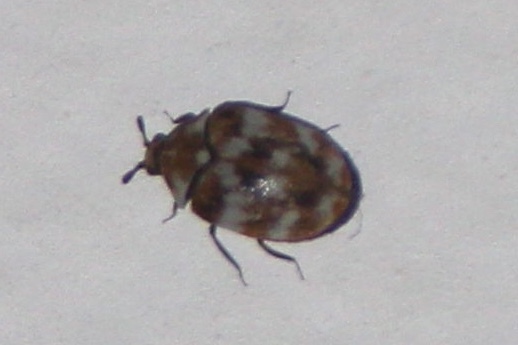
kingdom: Animalia
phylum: Arthropoda
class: Insecta
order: Coleoptera
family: Dermestidae
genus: Anthrenus
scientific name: Anthrenus verbasci
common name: Varied carpet beetle
